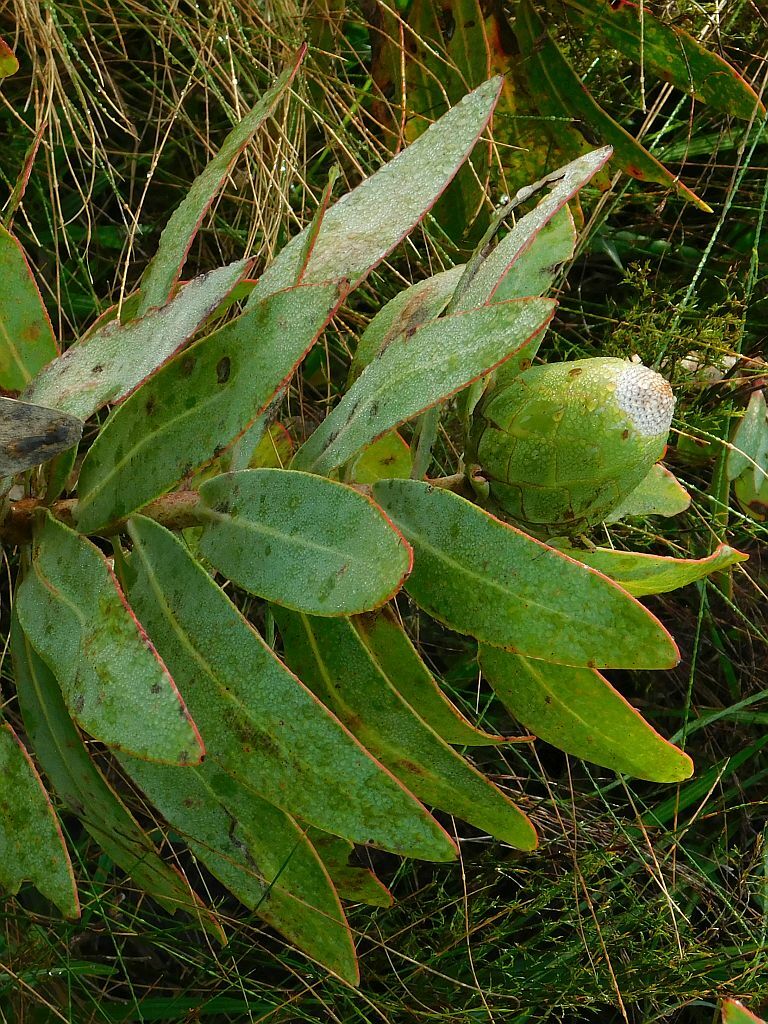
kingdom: Animalia
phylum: Arthropoda
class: Insecta
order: Coleoptera
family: Brentidae
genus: Afrotibicina
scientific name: Afrotibicina
